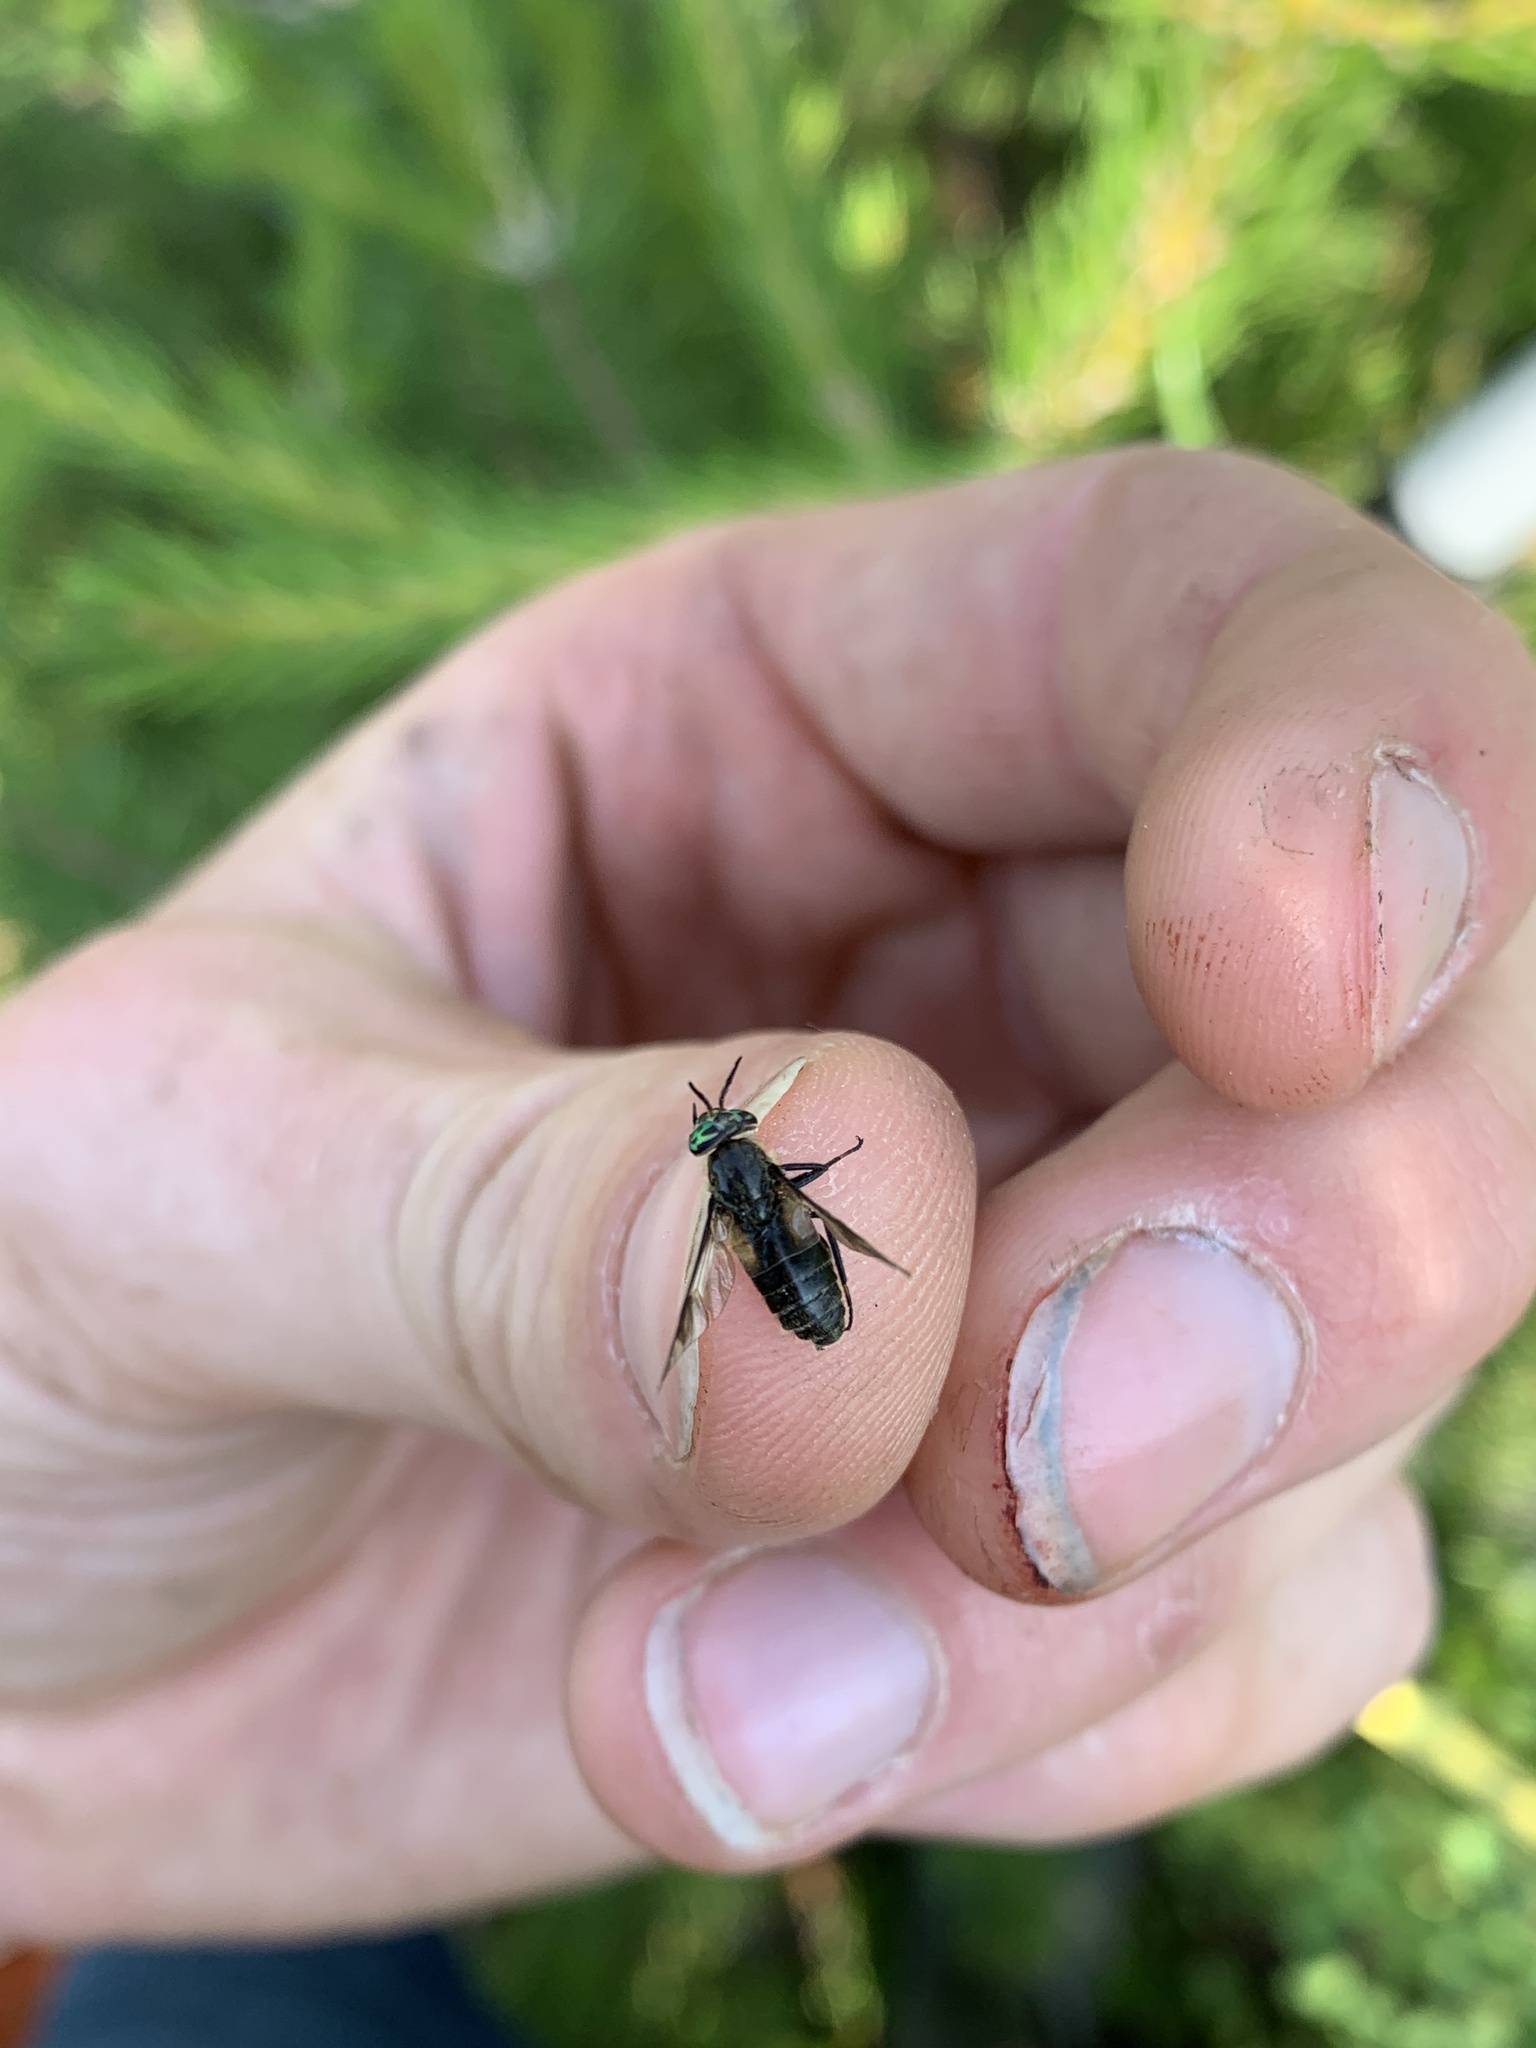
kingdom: Animalia
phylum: Arthropoda
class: Insecta
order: Diptera
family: Tabanidae
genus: Chrysops
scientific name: Chrysops dawsoni
